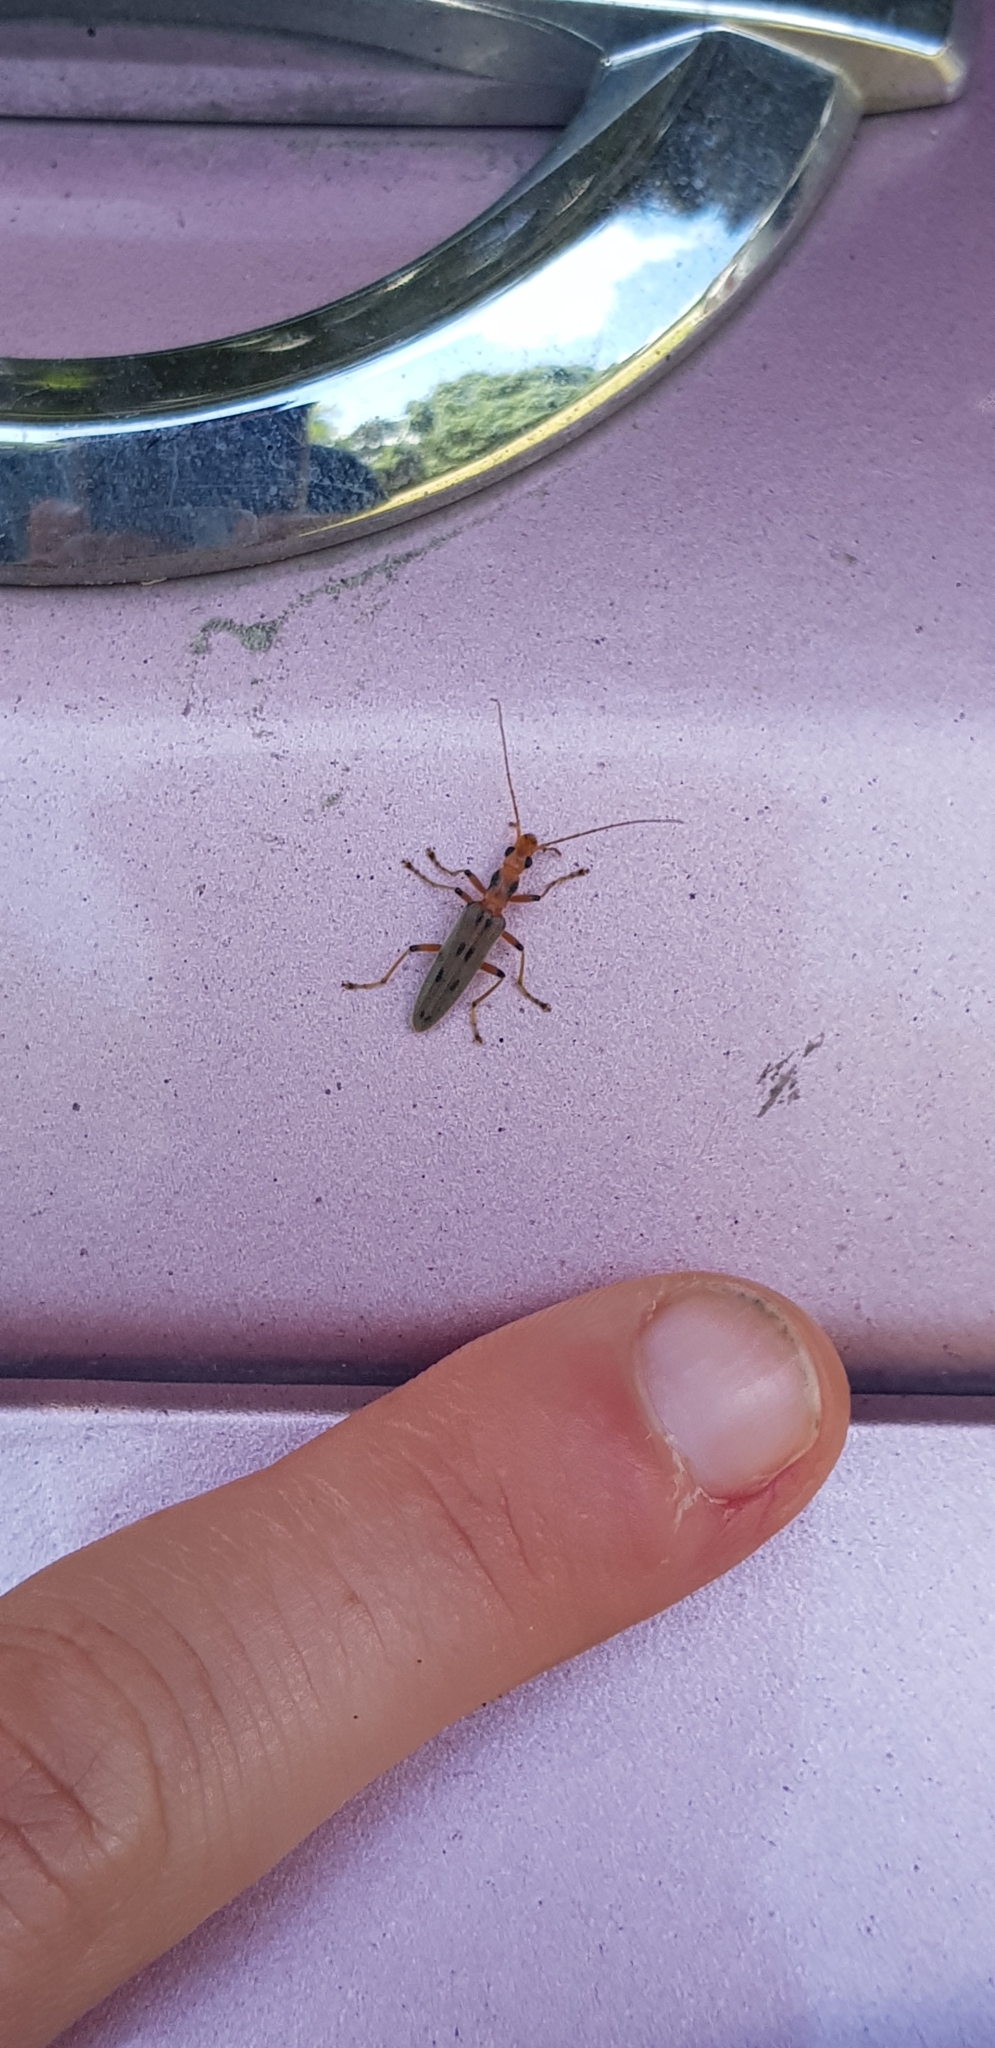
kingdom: Animalia
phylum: Arthropoda
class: Insecta
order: Coleoptera
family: Oedemeridae
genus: Parisopalpus
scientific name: Parisopalpus
